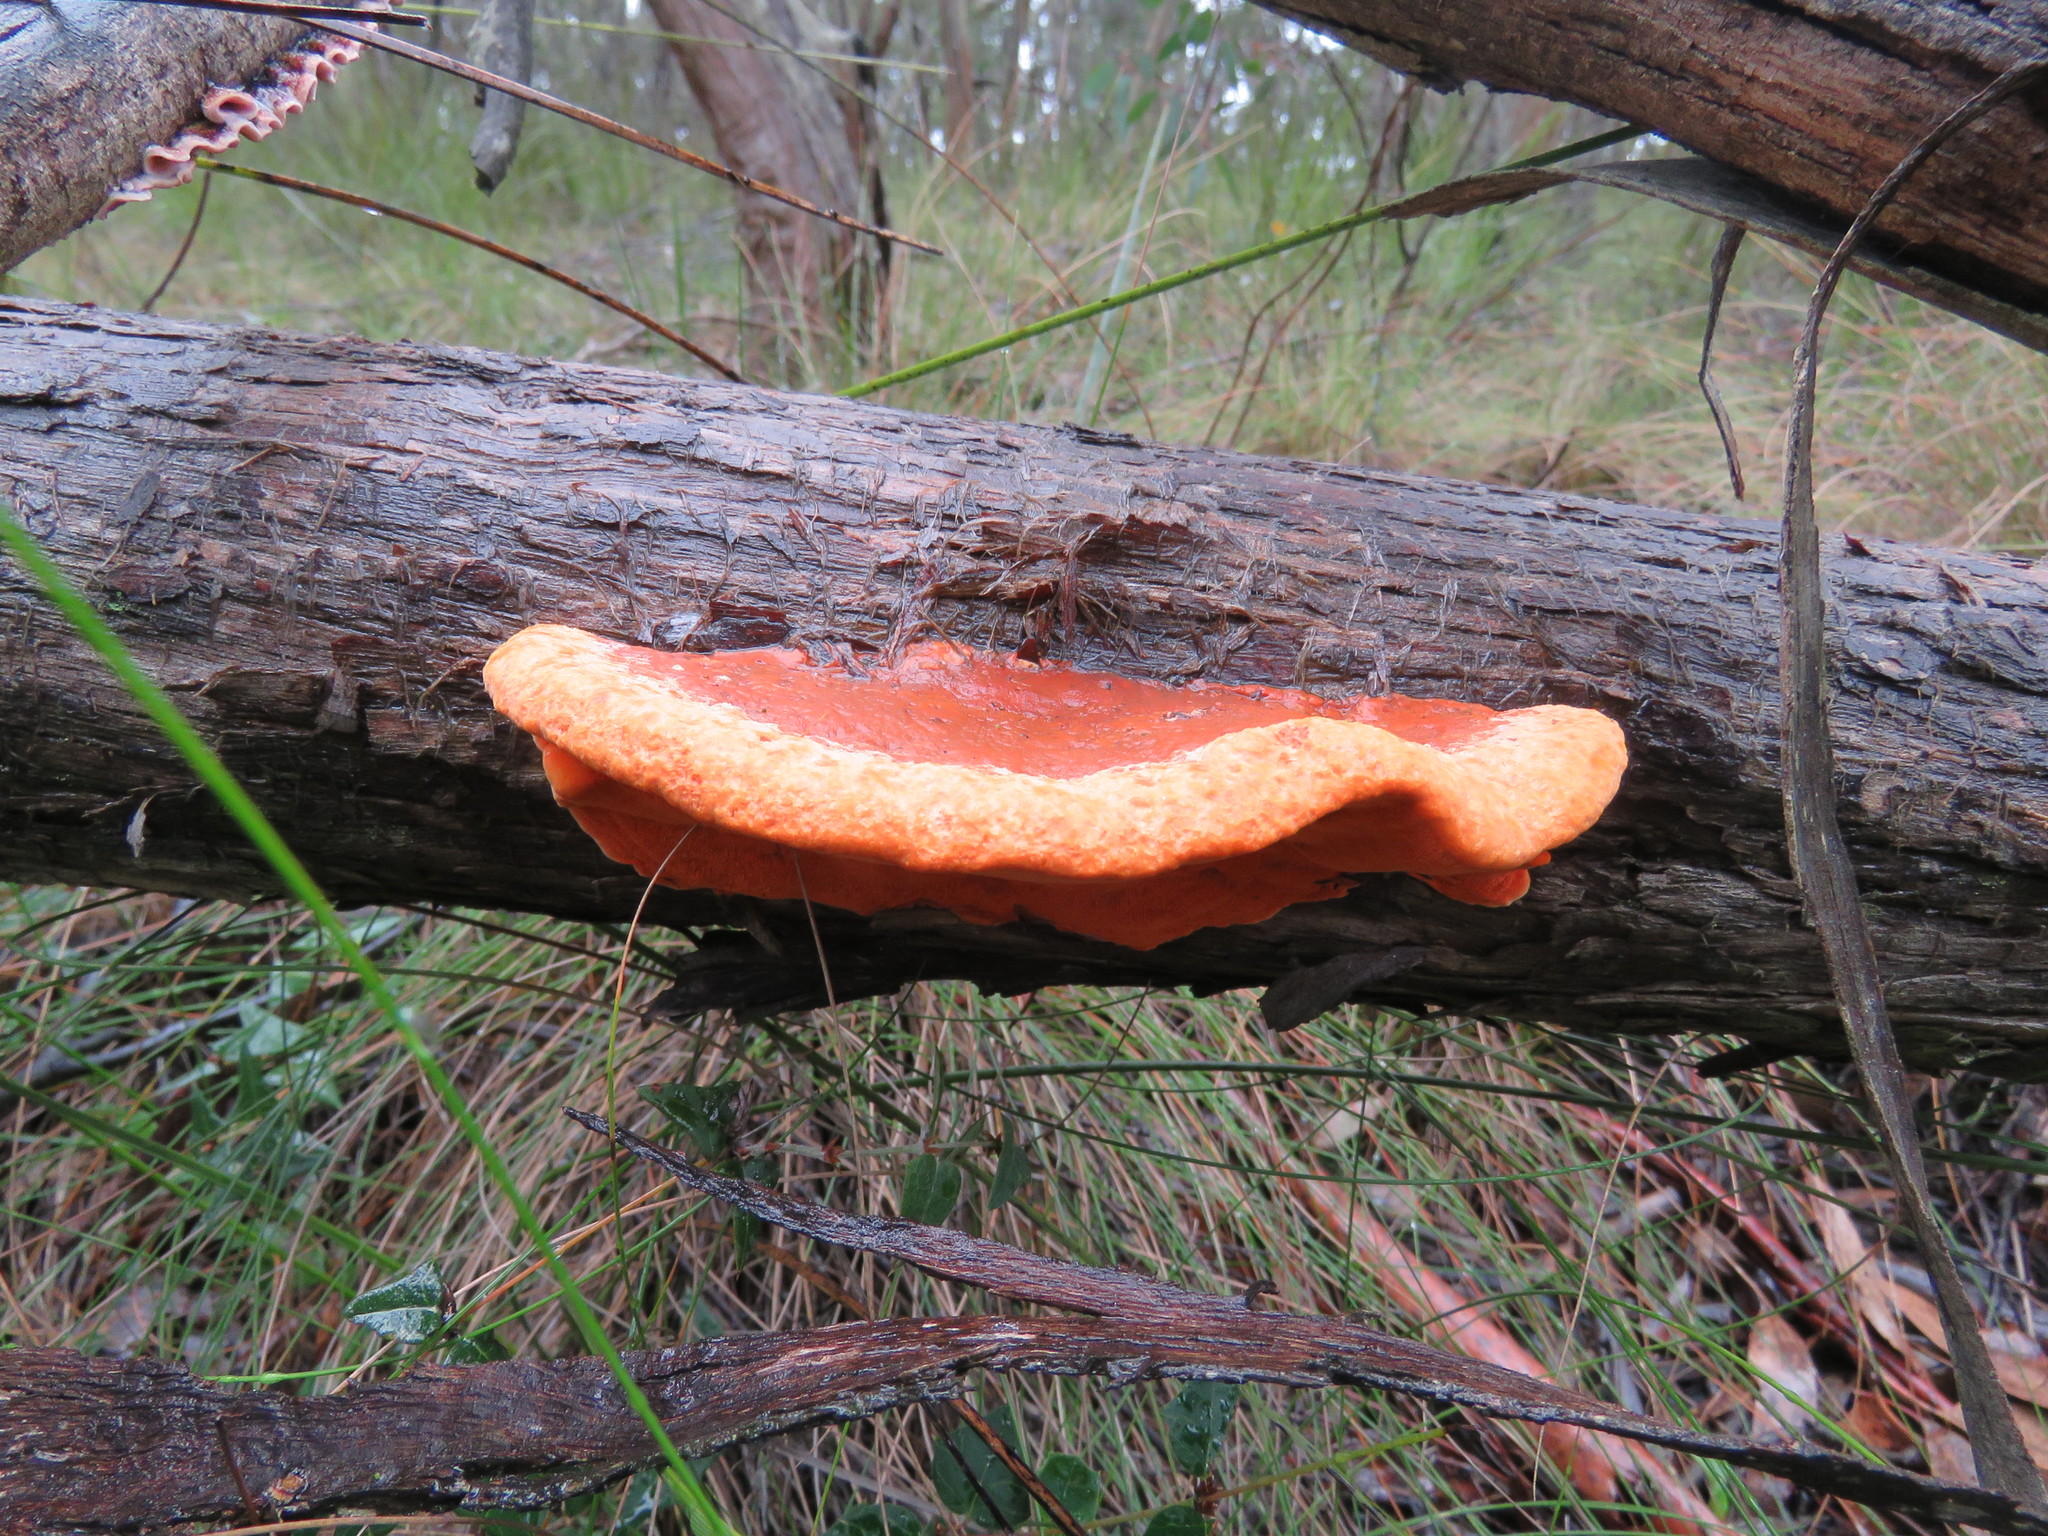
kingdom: Fungi
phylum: Basidiomycota
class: Agaricomycetes
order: Polyporales
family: Polyporaceae
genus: Trametes
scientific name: Trametes coccinea
